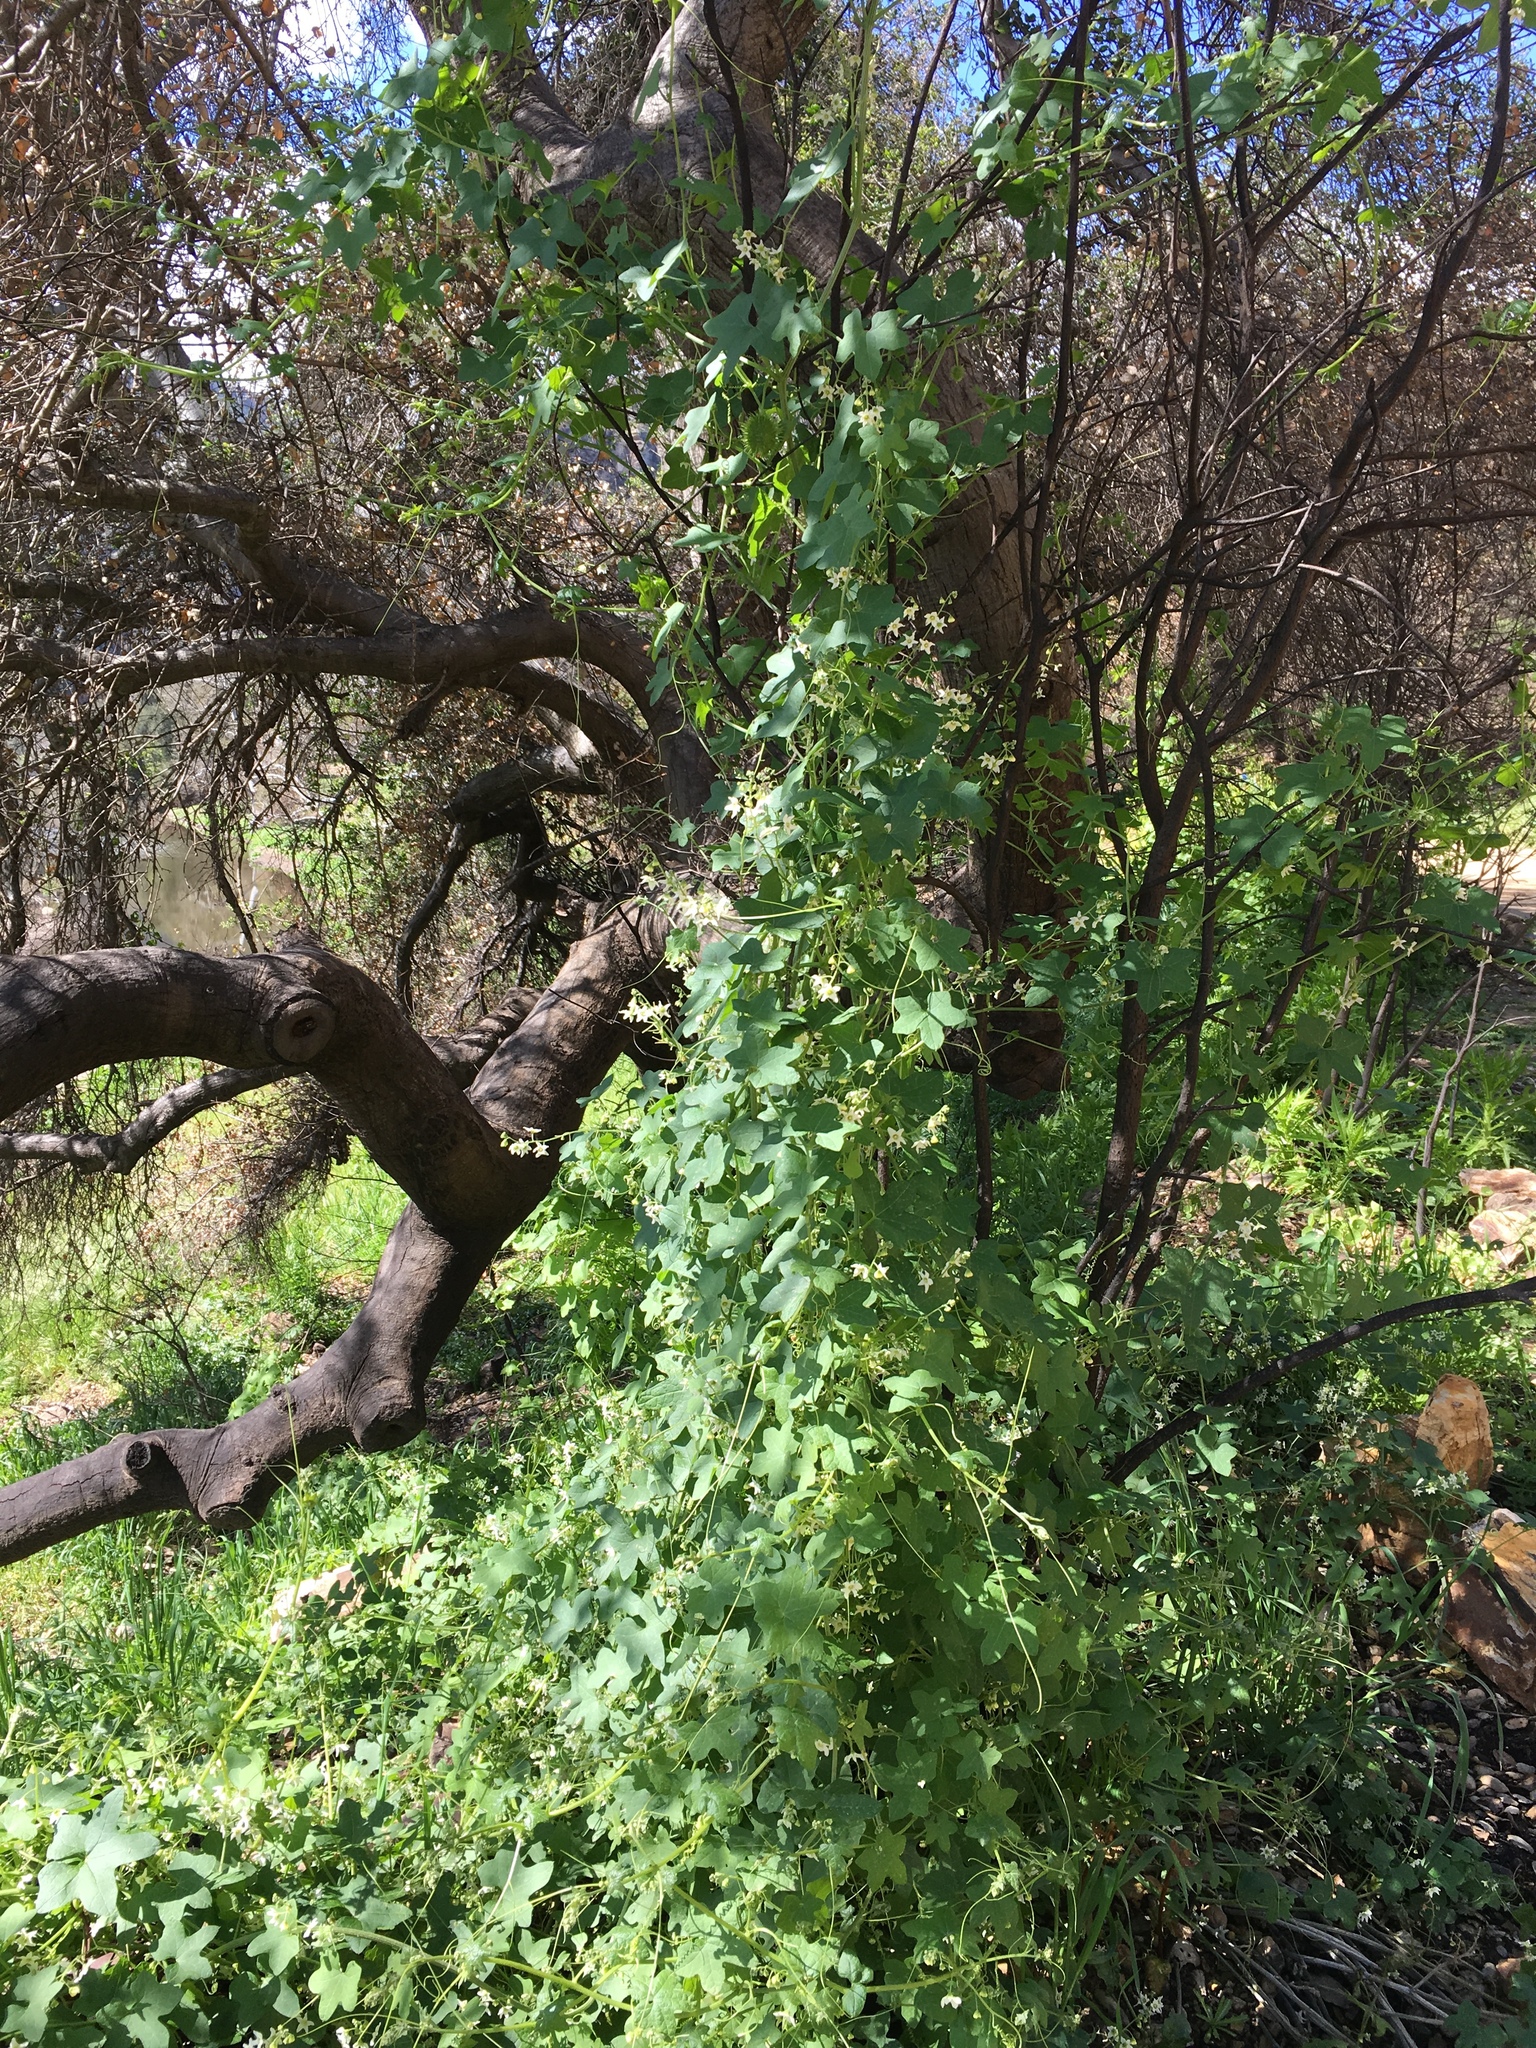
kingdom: Plantae
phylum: Tracheophyta
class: Magnoliopsida
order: Cucurbitales
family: Cucurbitaceae
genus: Marah
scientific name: Marah macrocarpa
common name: Cucamonga manroot
